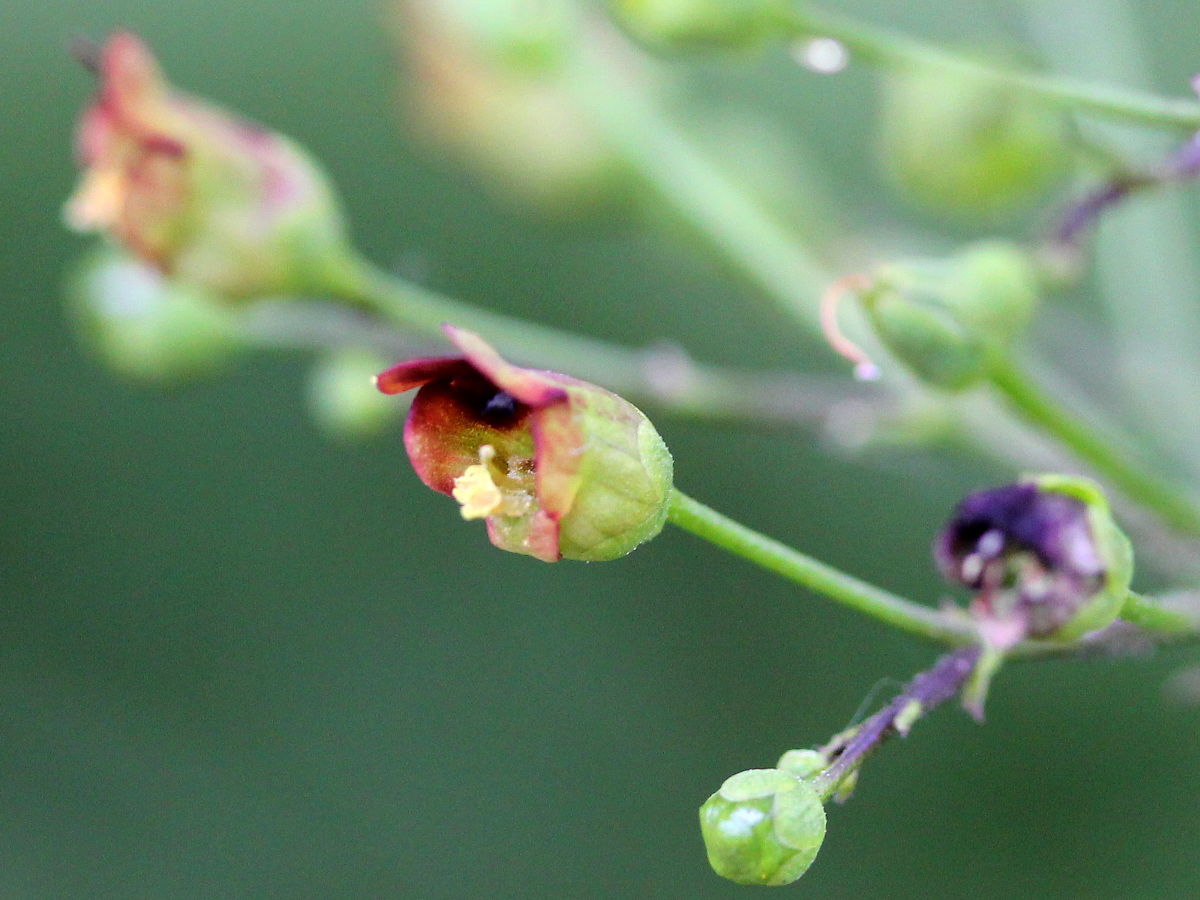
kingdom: Plantae
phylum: Tracheophyta
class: Magnoliopsida
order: Lamiales
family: Scrophulariaceae
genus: Scrophularia
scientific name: Scrophularia marilandica
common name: Eastern figwort
